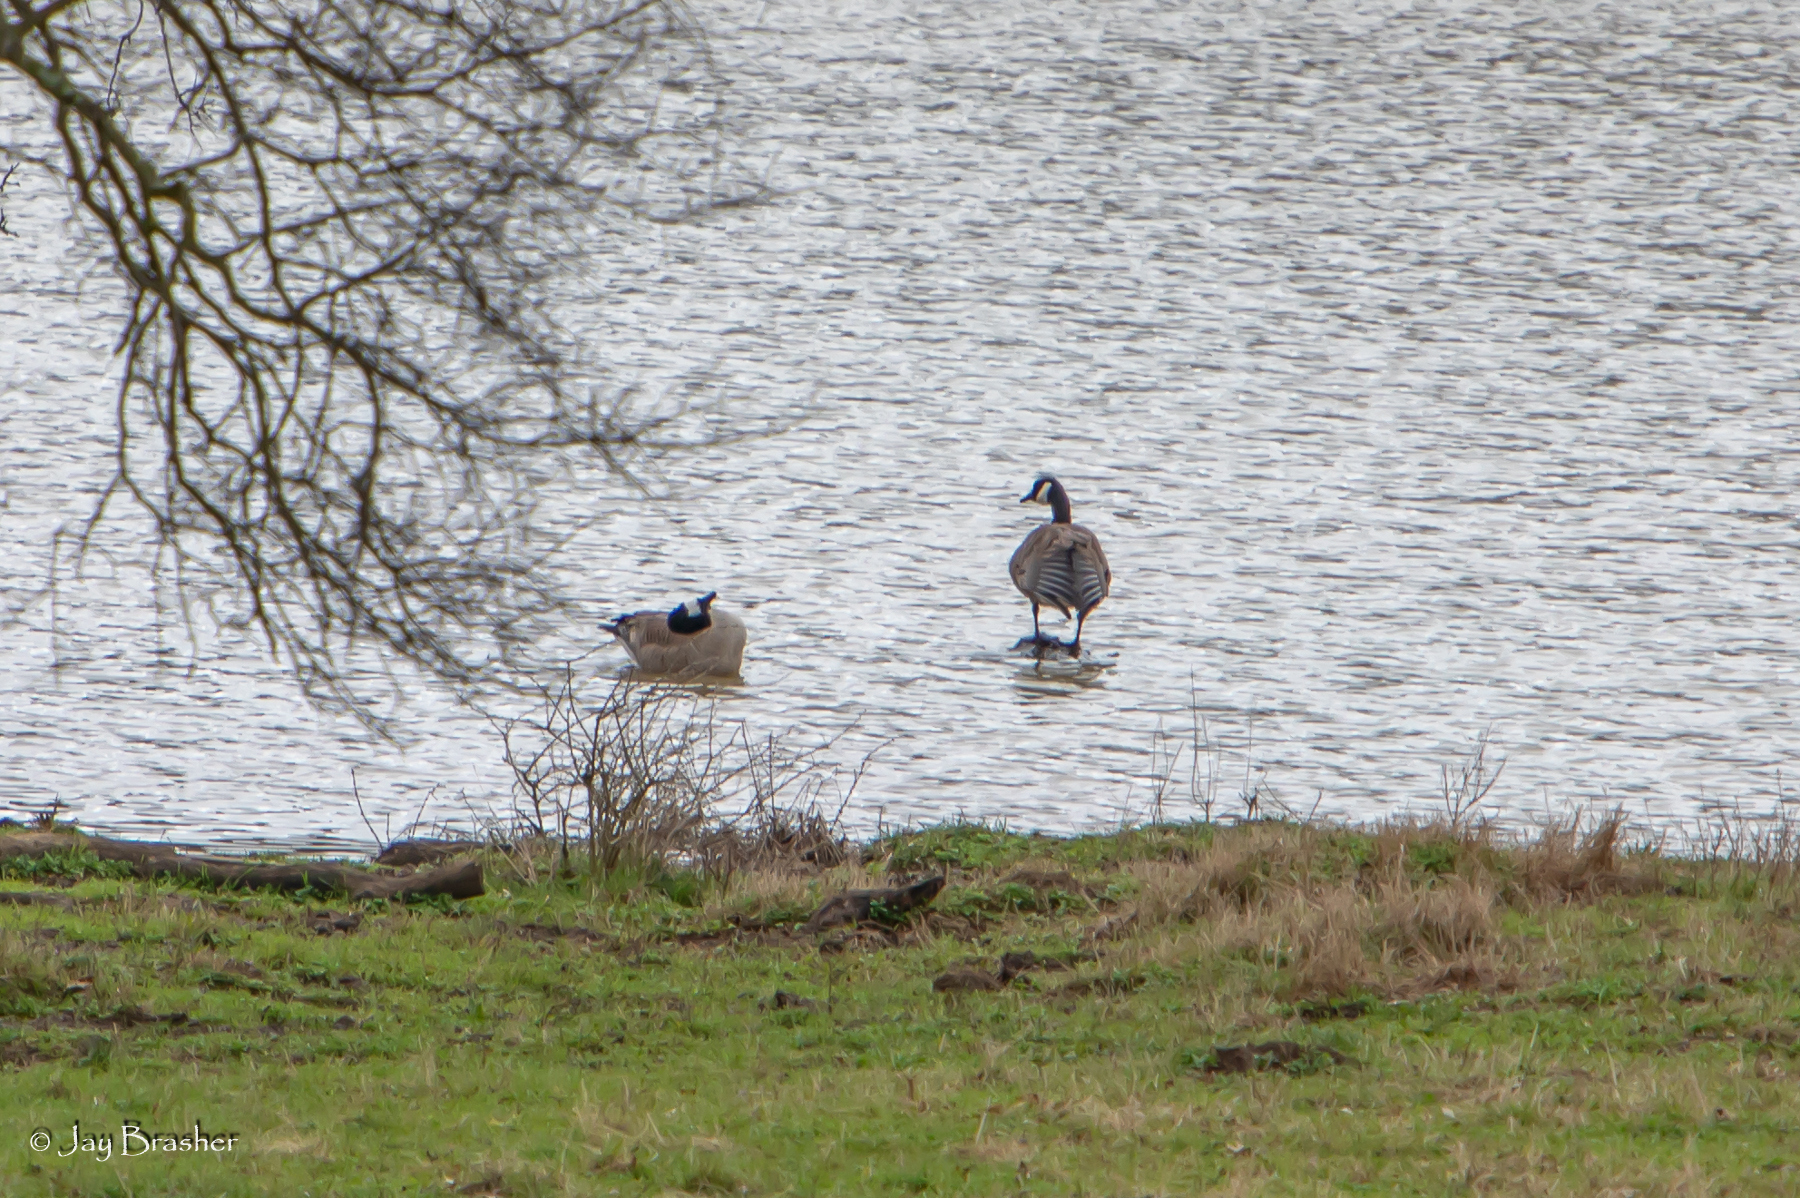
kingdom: Animalia
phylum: Chordata
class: Aves
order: Anseriformes
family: Anatidae
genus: Branta
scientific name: Branta canadensis
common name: Canada goose
